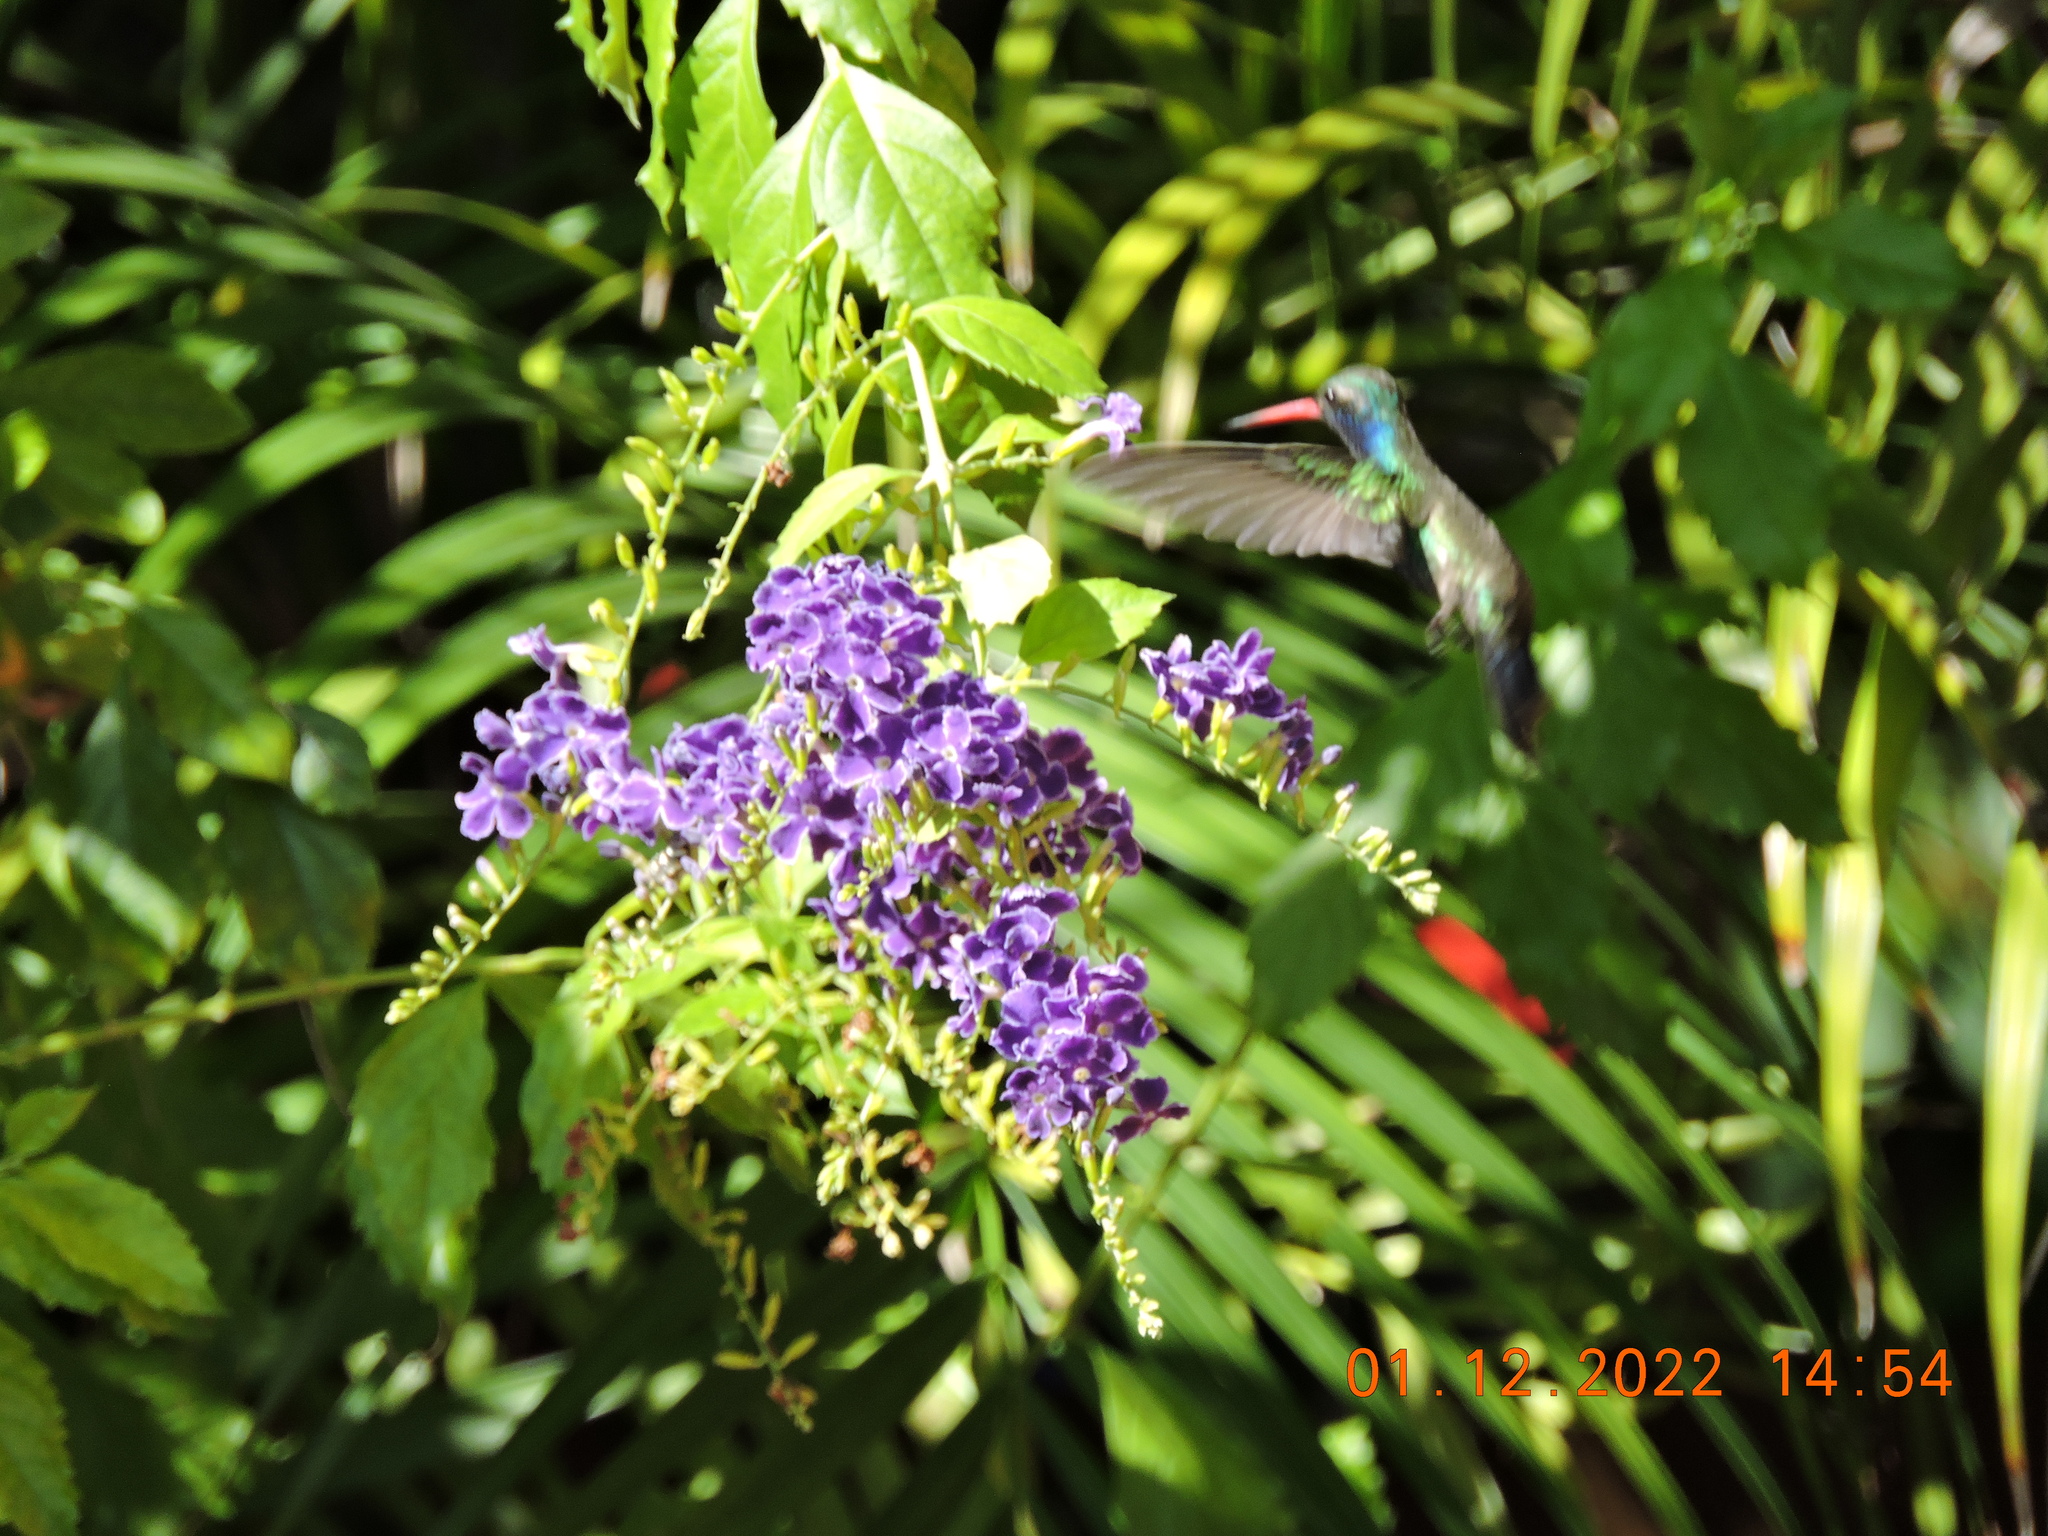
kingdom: Animalia
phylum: Chordata
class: Aves
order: Apodiformes
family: Trochilidae
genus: Cynanthus
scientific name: Cynanthus latirostris
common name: Broad-billed hummingbird
